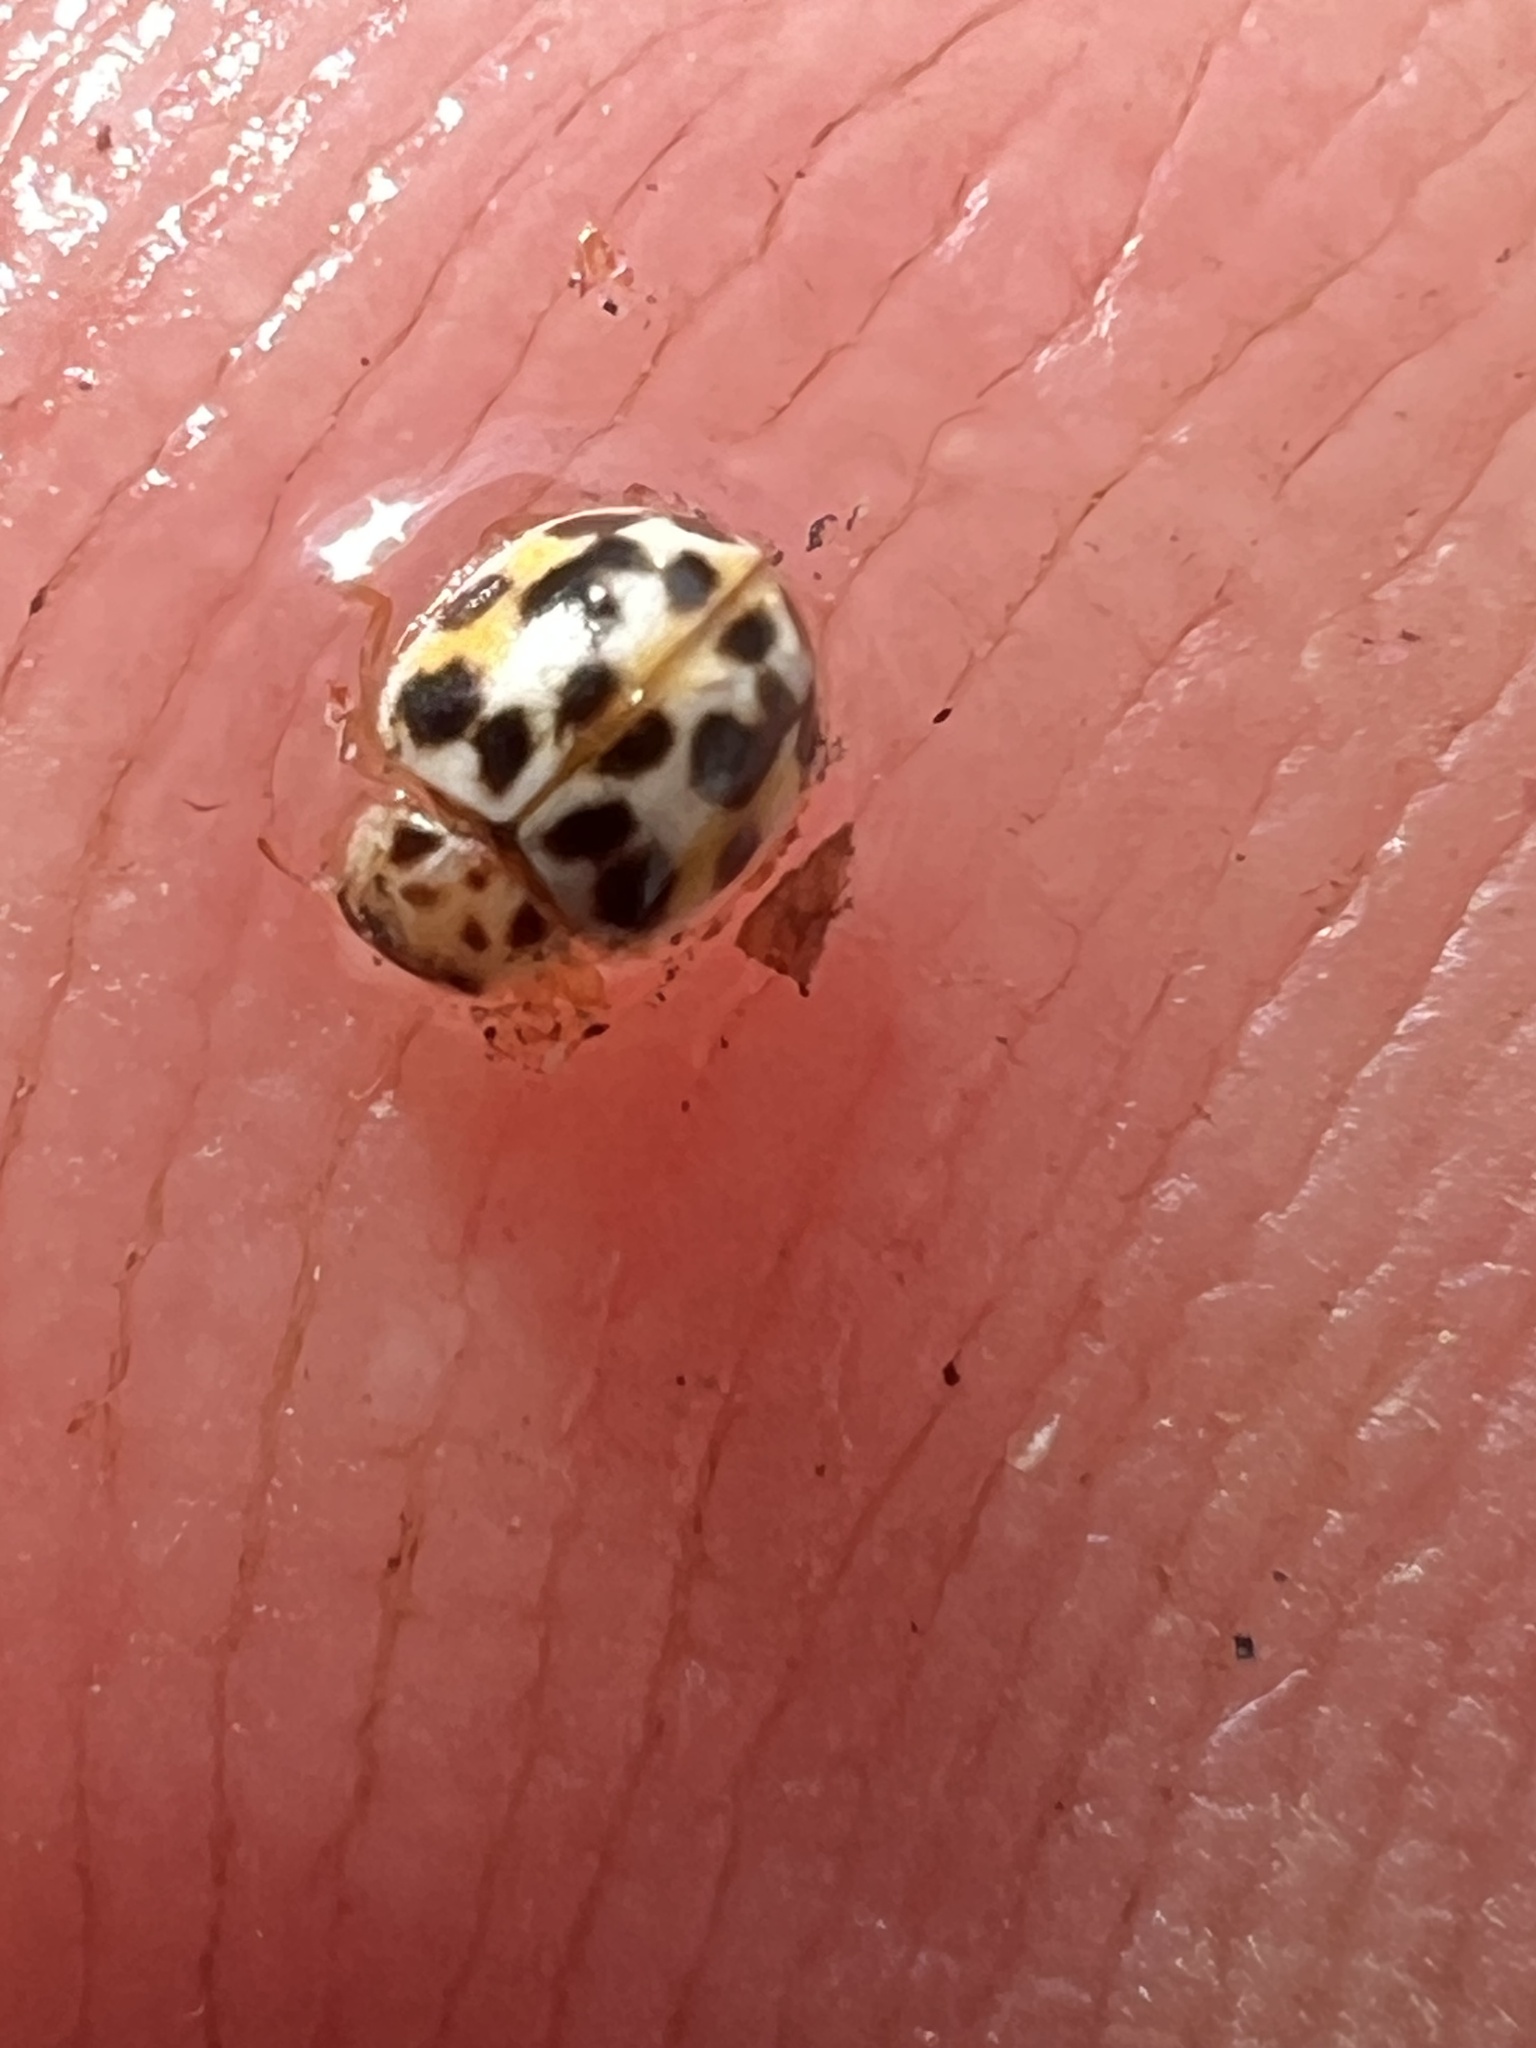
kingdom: Animalia
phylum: Arthropoda
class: Insecta
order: Coleoptera
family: Coccinellidae
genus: Psyllobora
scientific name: Psyllobora vigintimaculata
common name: Ladybird beetle
